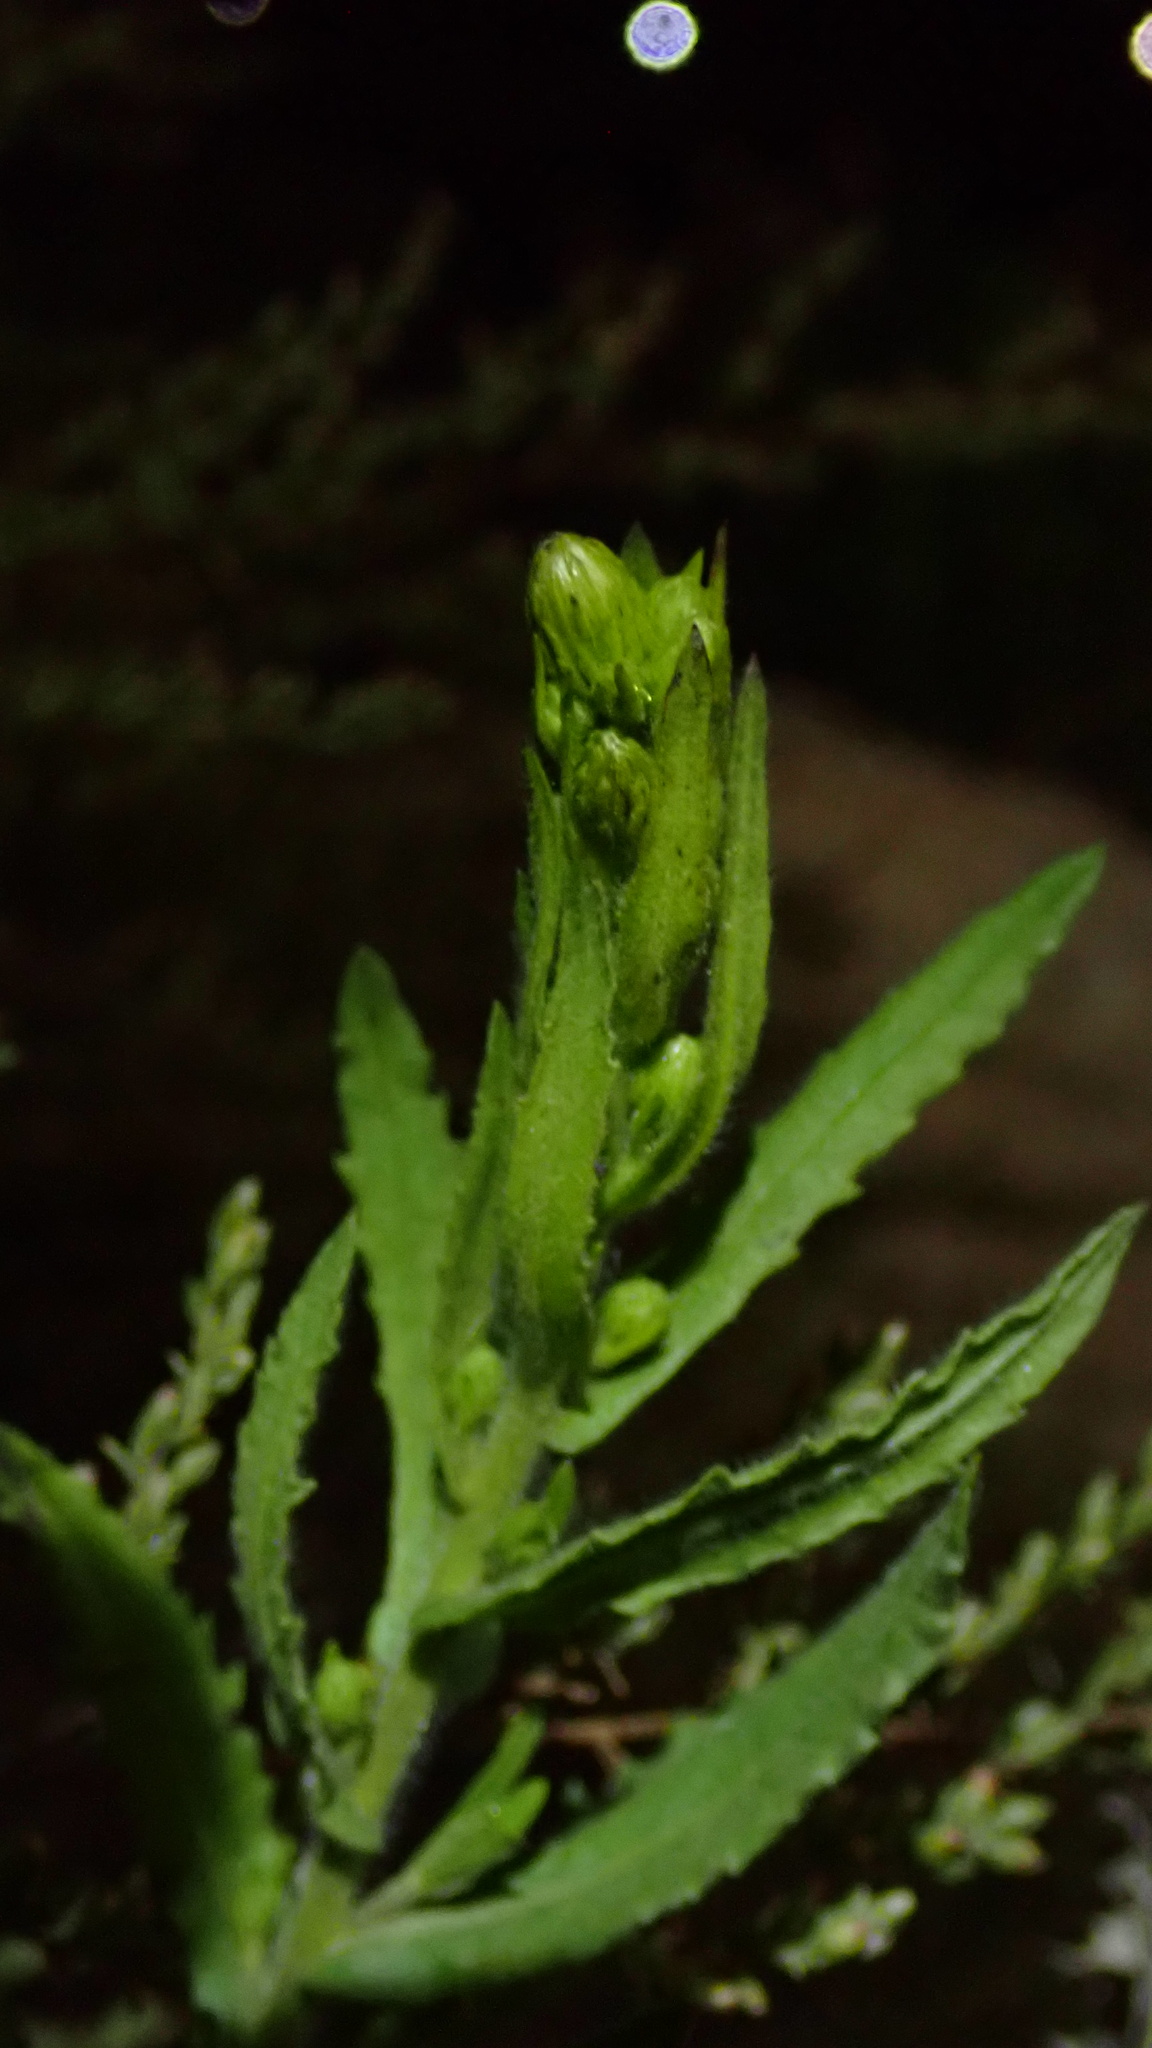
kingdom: Plantae
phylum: Tracheophyta
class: Magnoliopsida
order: Asterales
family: Asteraceae
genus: Dittrichia
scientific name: Dittrichia viscosa
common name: Woody fleabane
